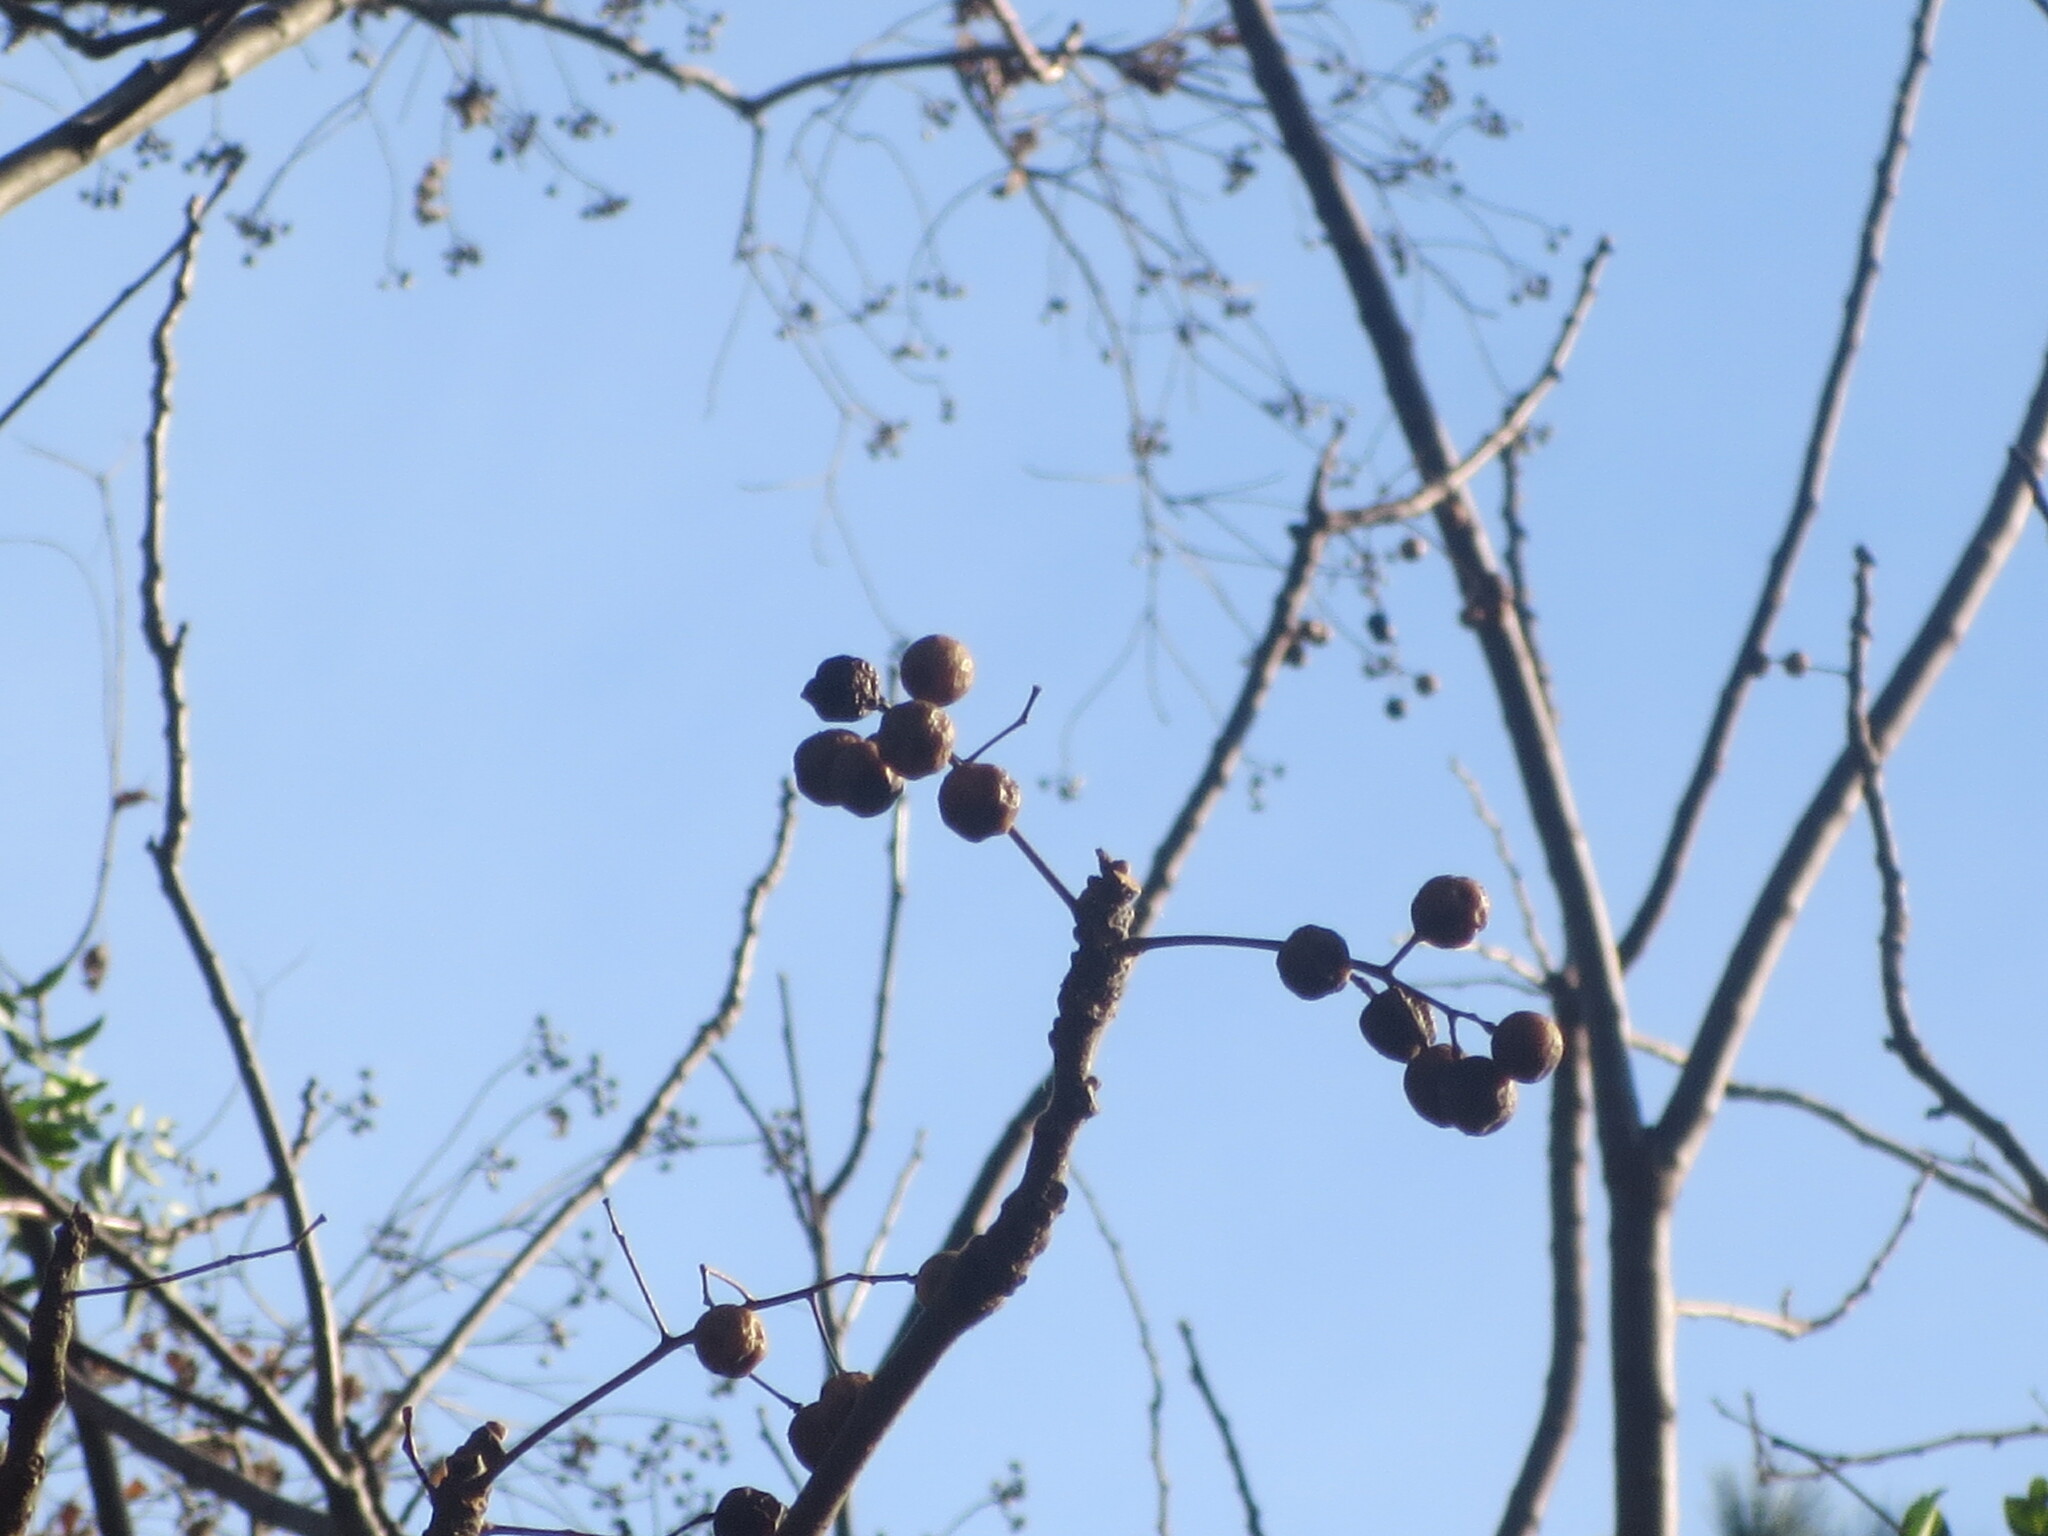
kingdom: Plantae
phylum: Tracheophyta
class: Magnoliopsida
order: Rosales
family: Rosaceae
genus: Pyrus
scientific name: Pyrus calleryana
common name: Callery pear
